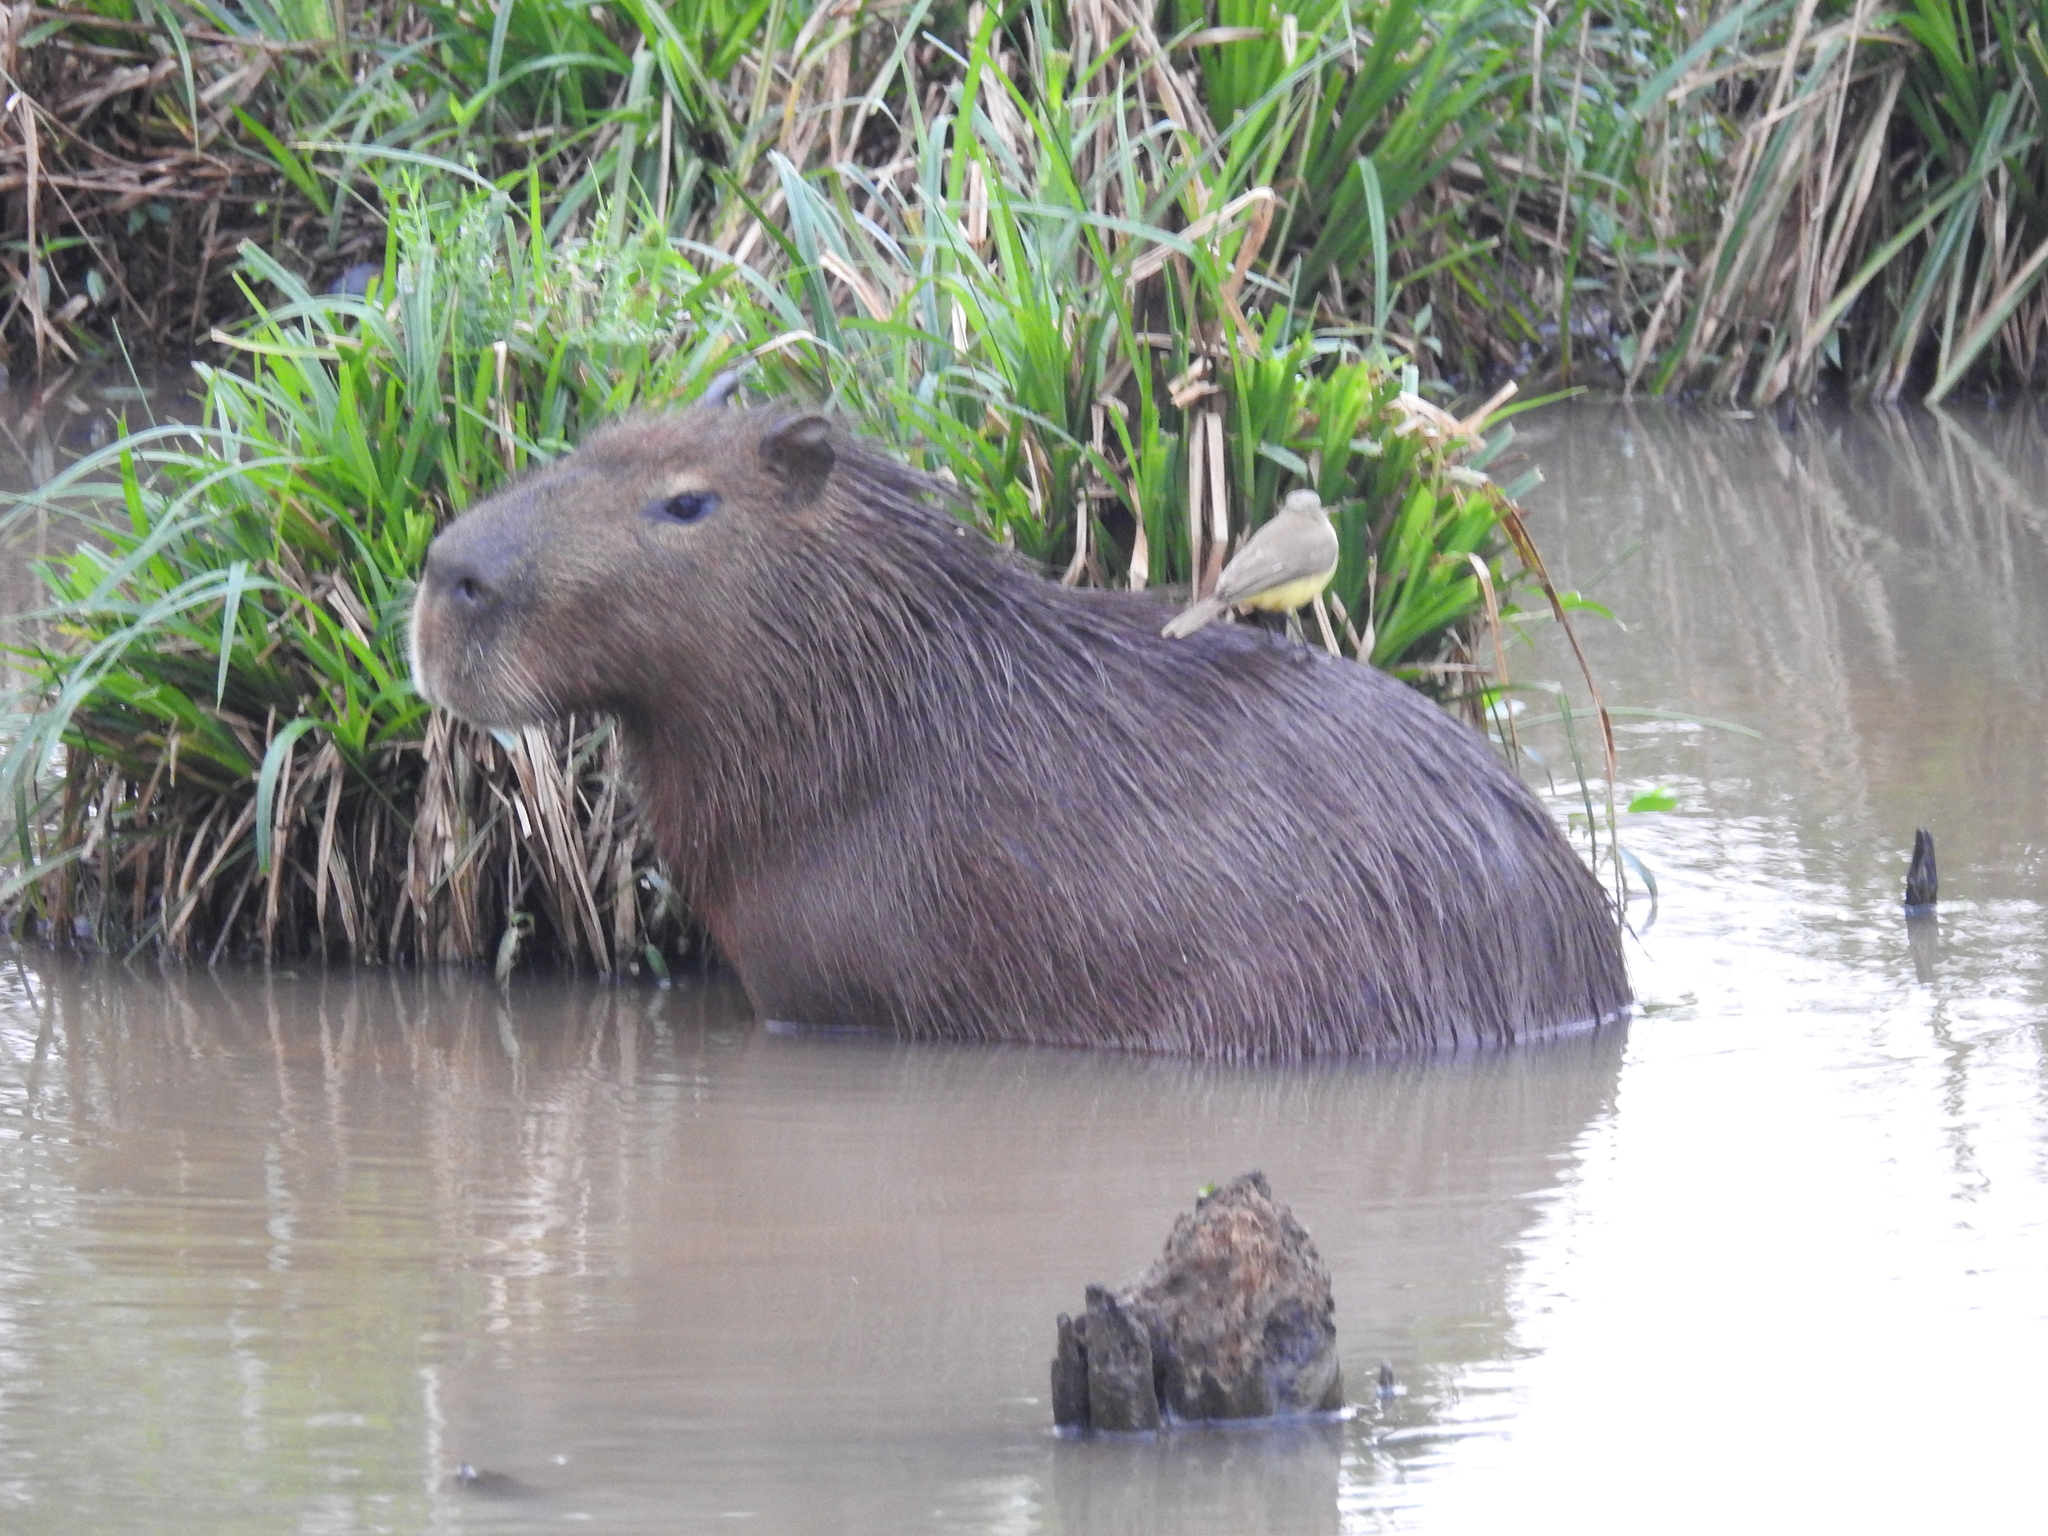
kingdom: Animalia
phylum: Chordata
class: Aves
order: Passeriformes
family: Tyrannidae
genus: Machetornis
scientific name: Machetornis rixosa
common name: Cattle tyrant
